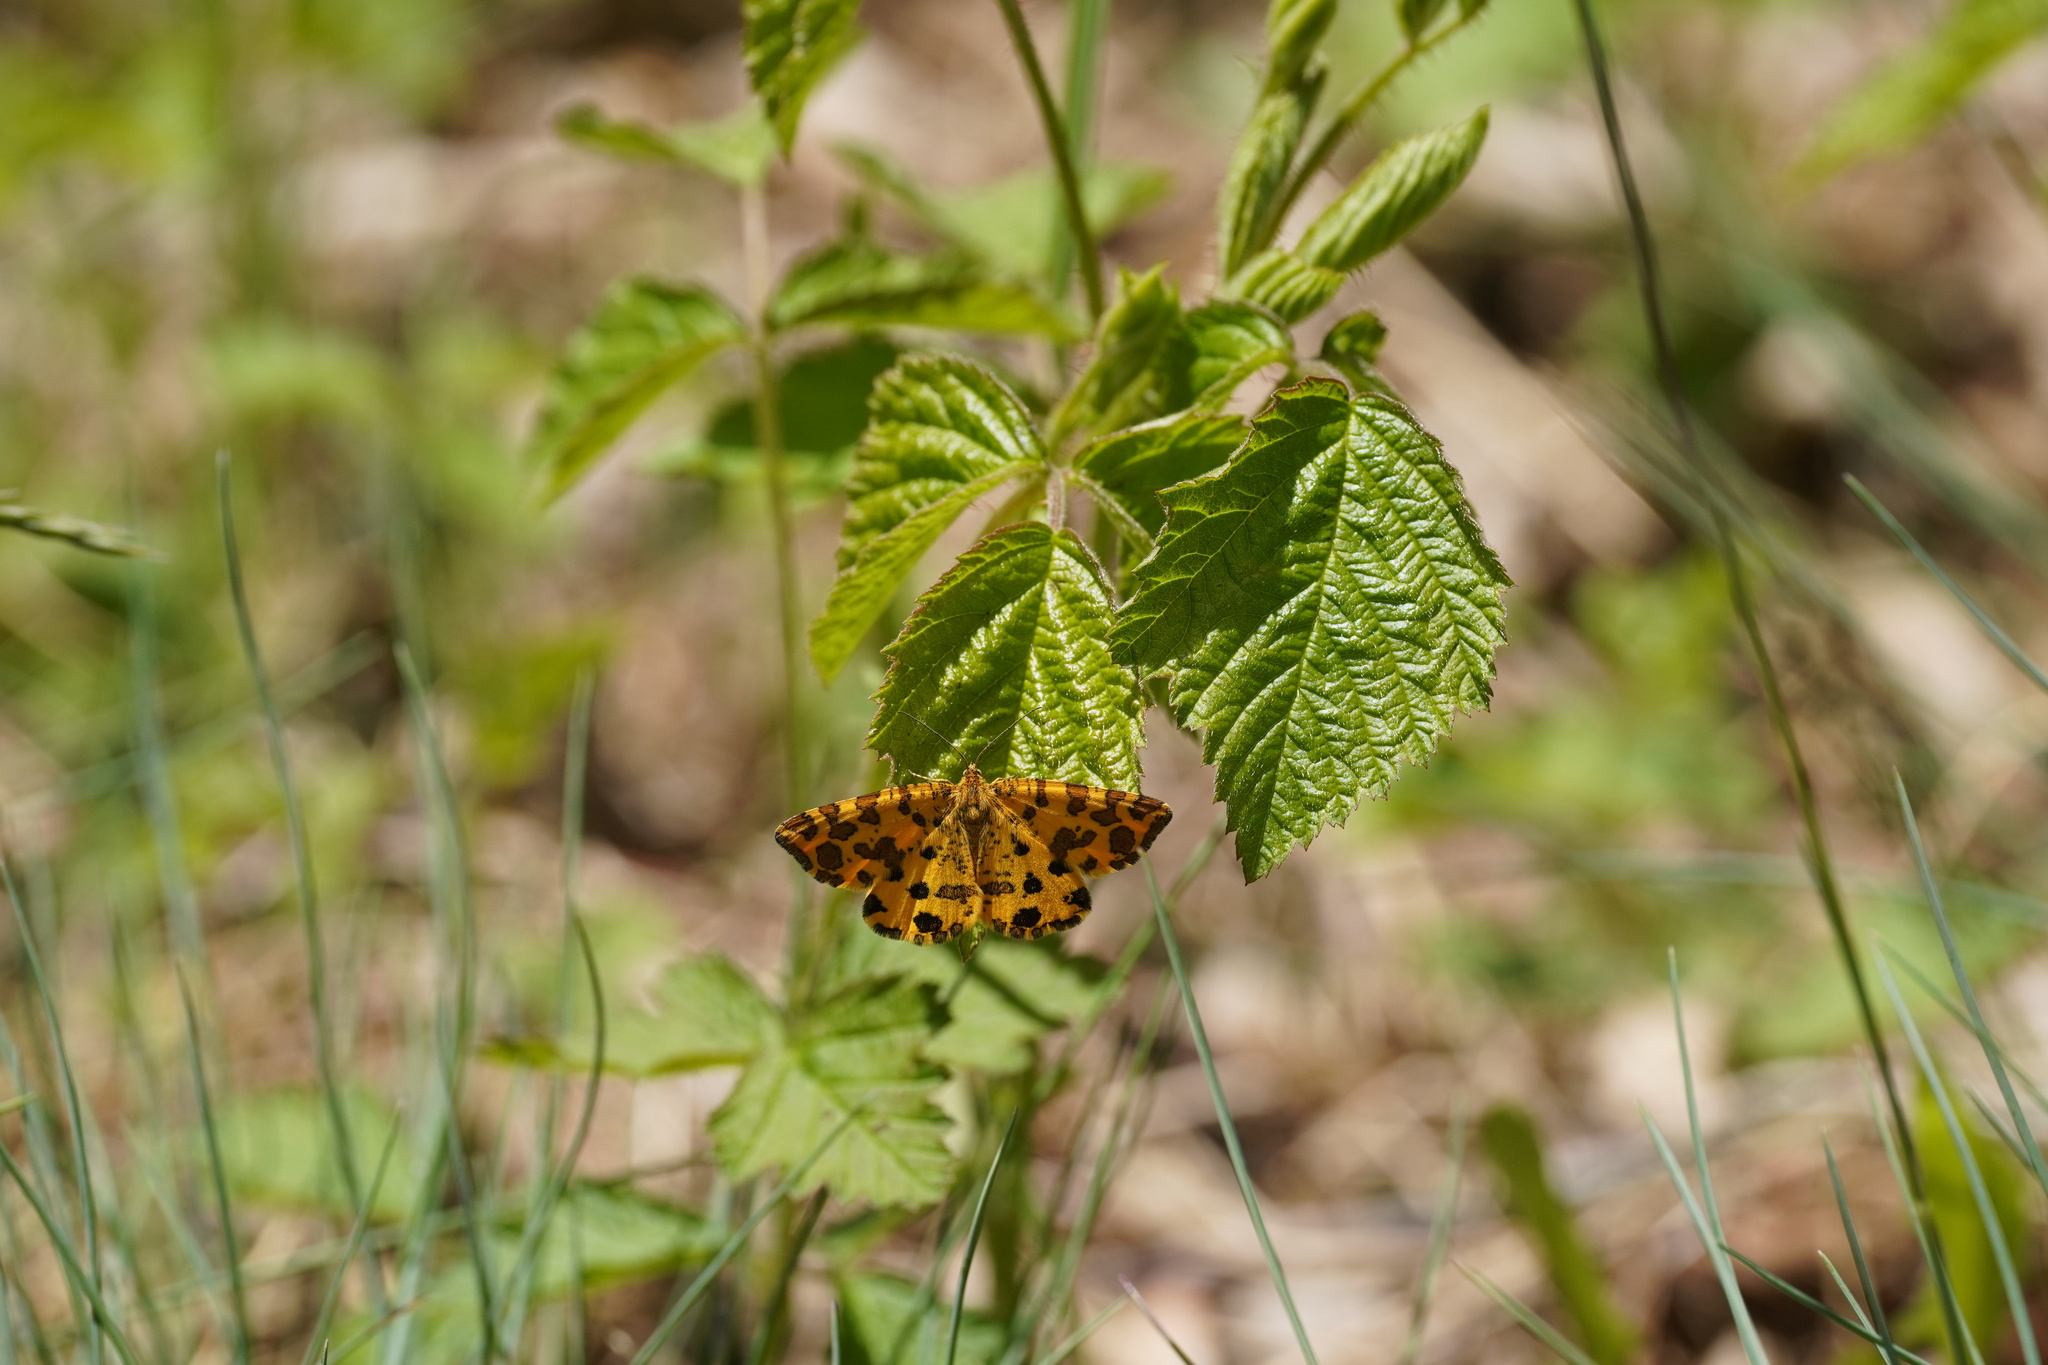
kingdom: Animalia
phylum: Arthropoda
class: Insecta
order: Lepidoptera
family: Geometridae
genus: Pseudopanthera
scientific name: Pseudopanthera macularia
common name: Speckled yellow
